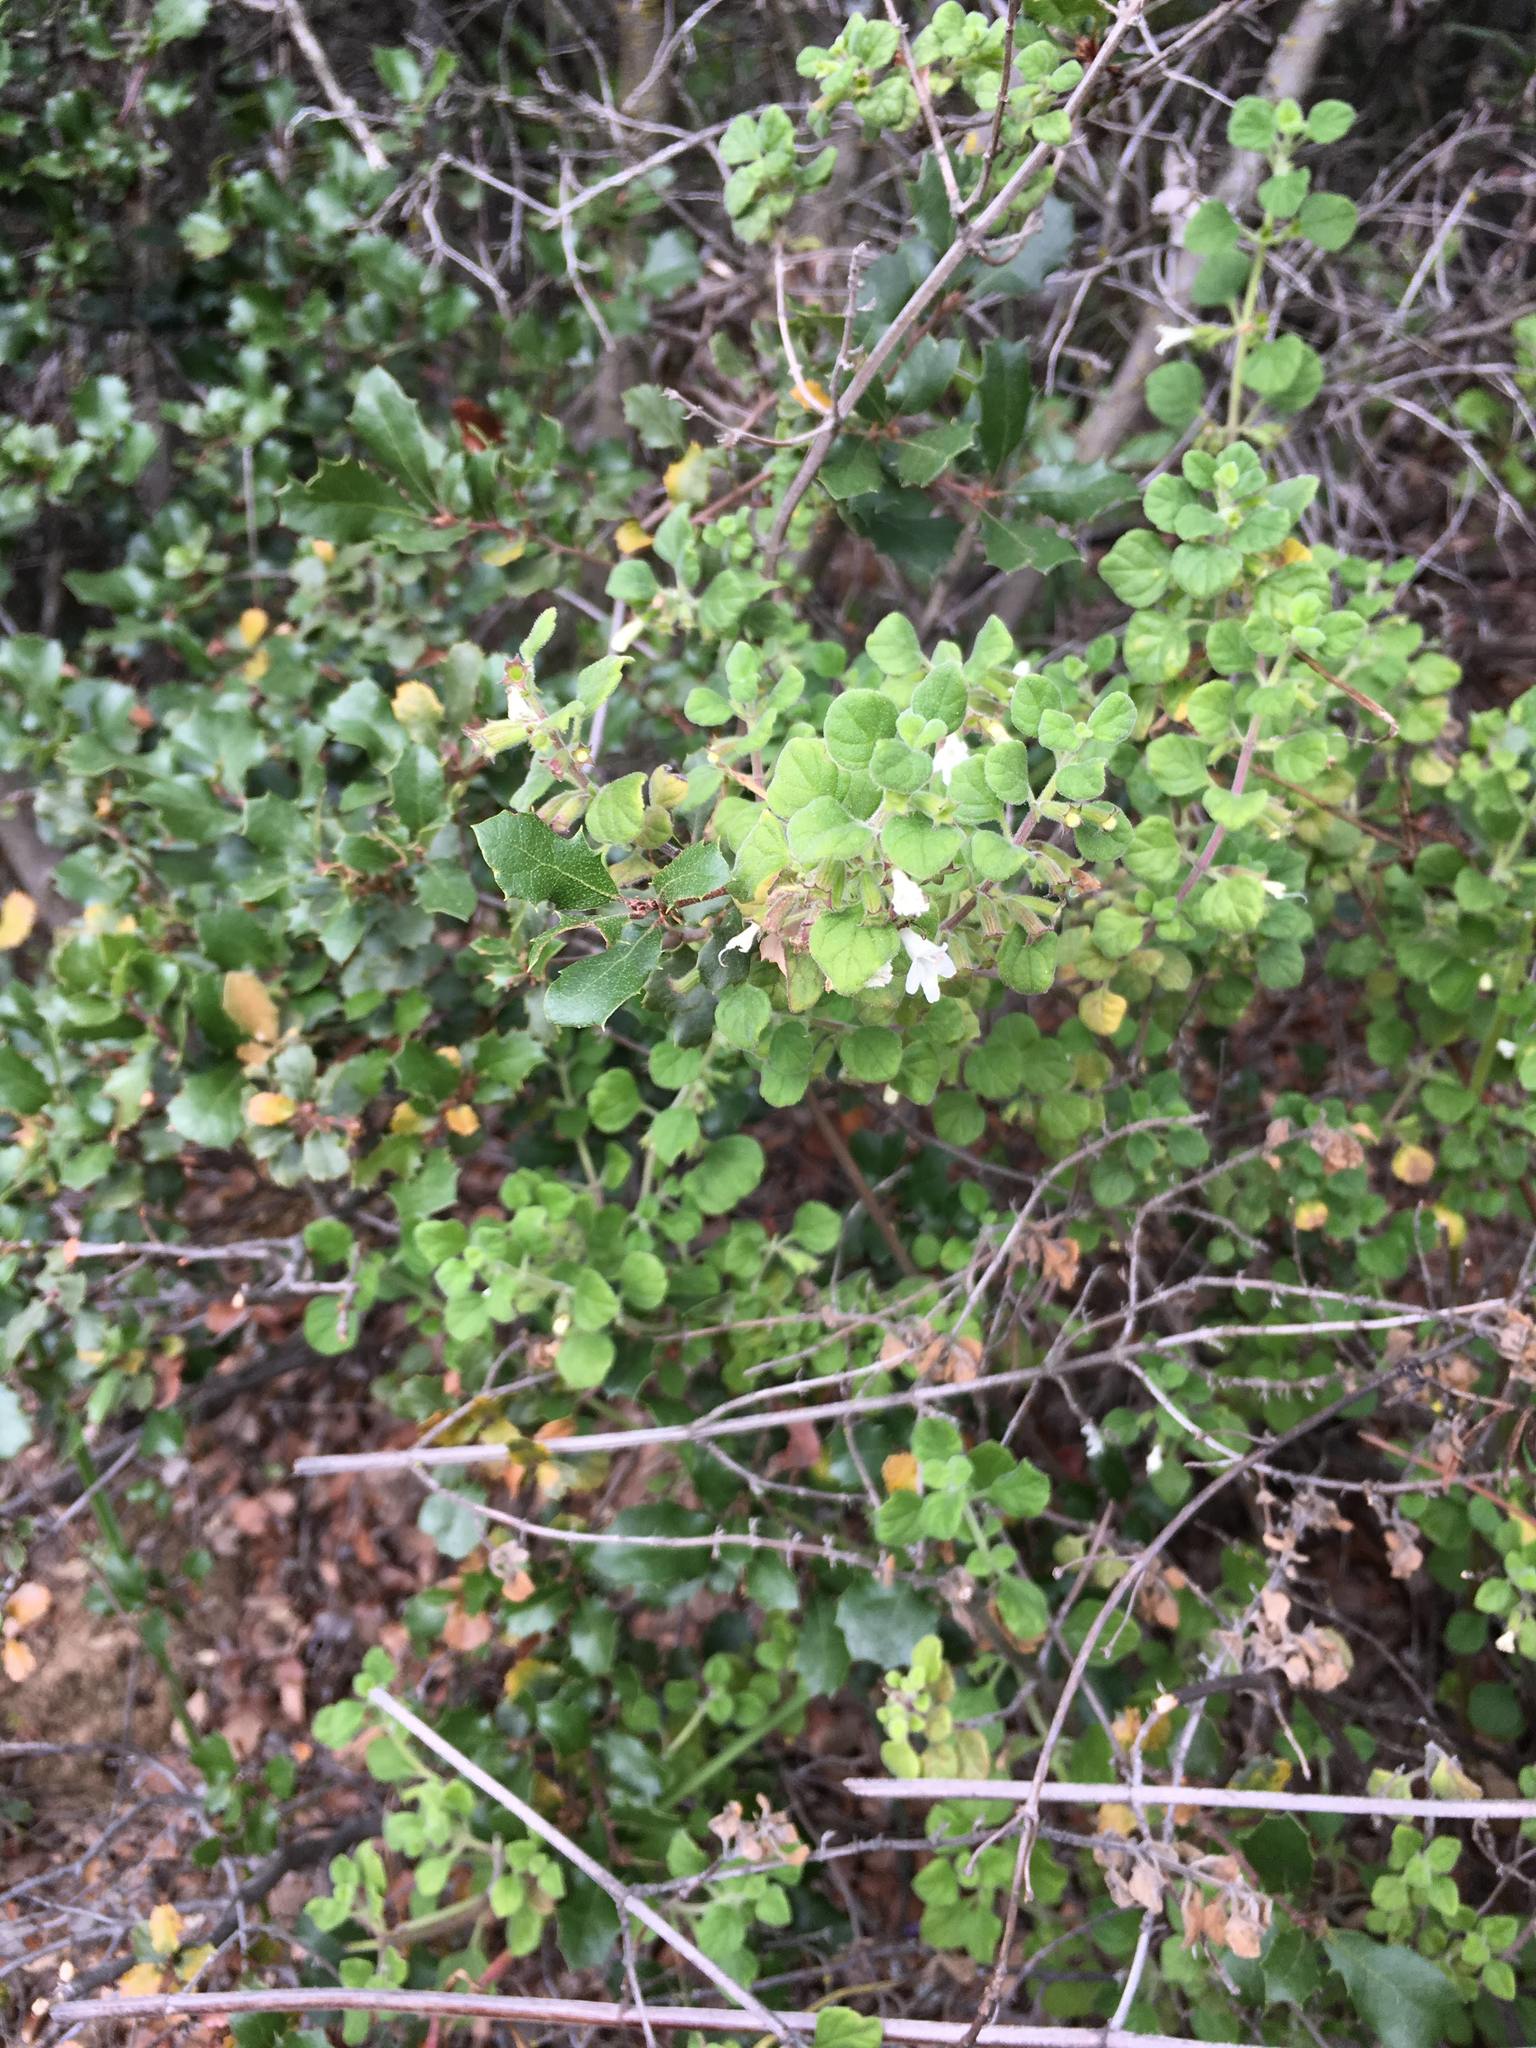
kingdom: Plantae
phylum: Tracheophyta
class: Magnoliopsida
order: Lamiales
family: Lamiaceae
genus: Clinopodium
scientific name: Clinopodium chandleri
